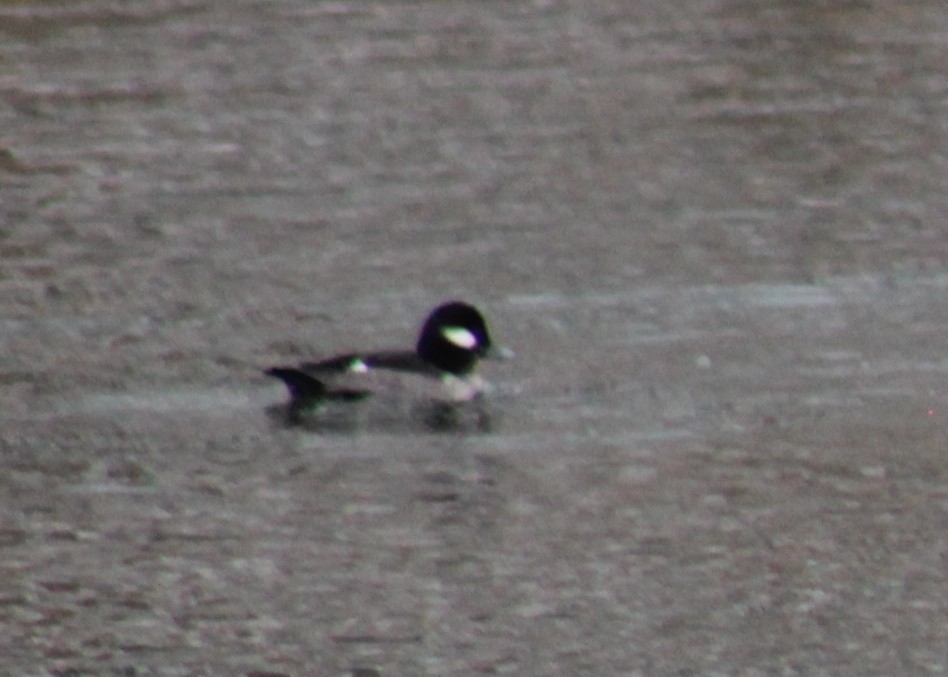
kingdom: Animalia
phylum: Chordata
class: Aves
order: Anseriformes
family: Anatidae
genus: Bucephala
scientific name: Bucephala albeola
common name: Bufflehead
